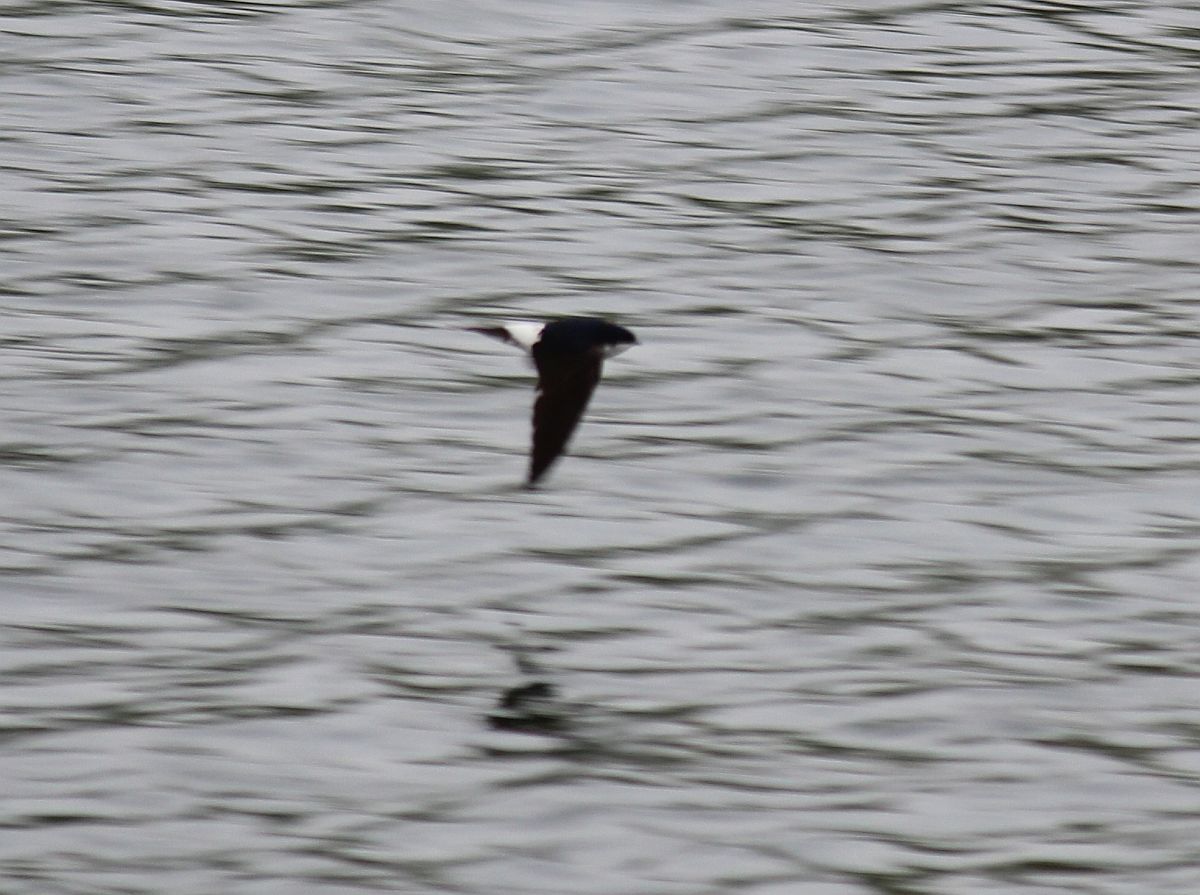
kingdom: Animalia
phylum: Chordata
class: Aves
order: Passeriformes
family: Hirundinidae
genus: Delichon
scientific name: Delichon urbicum
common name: Common house martin
